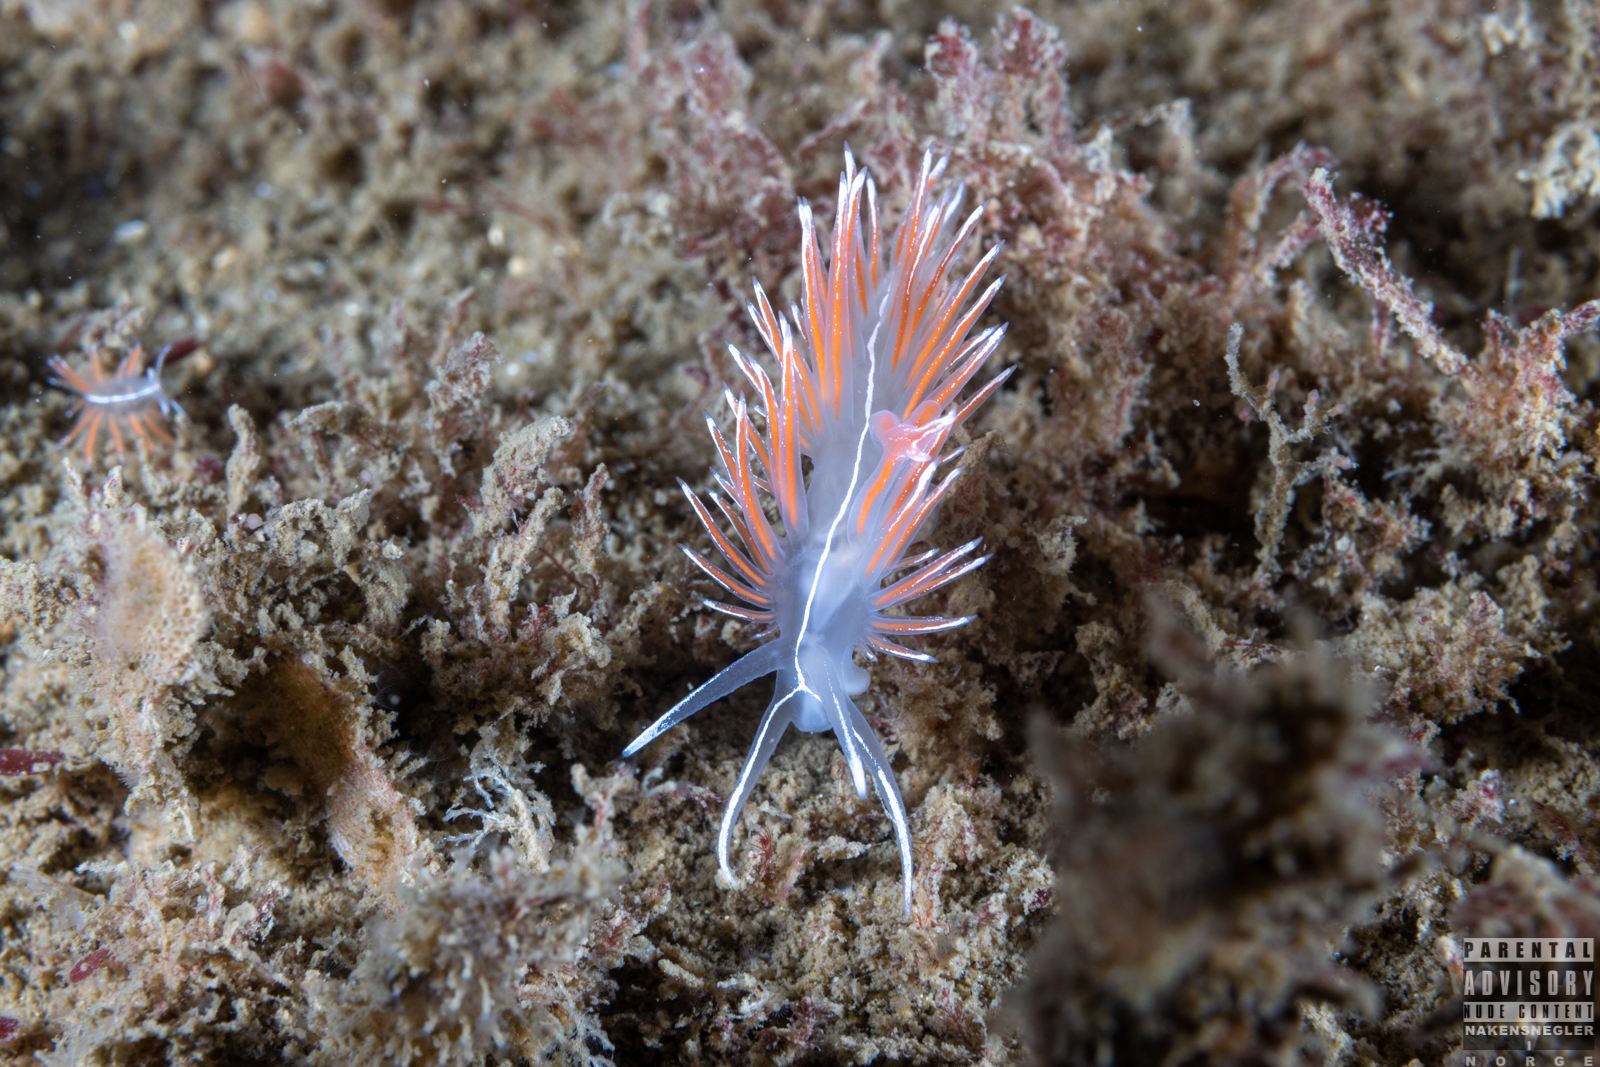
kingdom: Animalia
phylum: Mollusca
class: Gastropoda
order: Nudibranchia
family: Coryphellidae
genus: Coryphella
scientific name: Coryphella lineata
